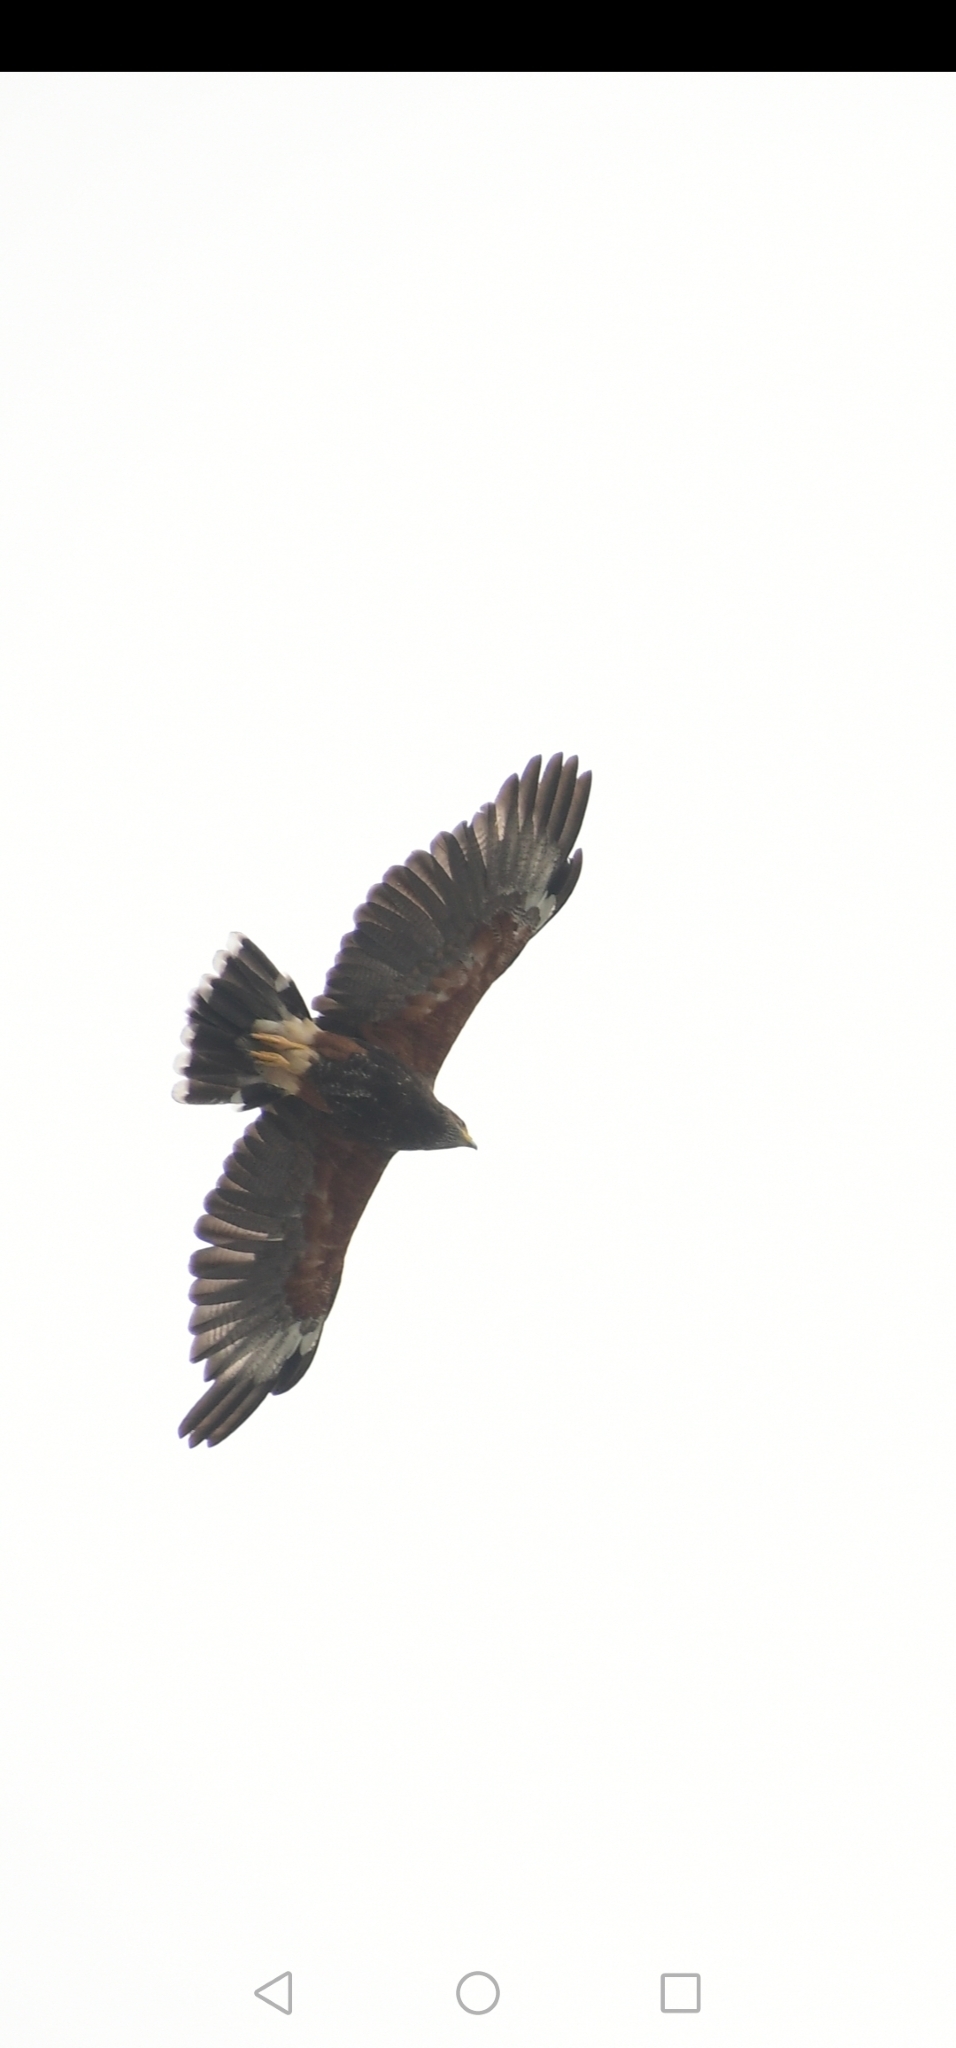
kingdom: Animalia
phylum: Chordata
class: Aves
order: Accipitriformes
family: Accipitridae
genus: Parabuteo
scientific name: Parabuteo unicinctus
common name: Harris's hawk
